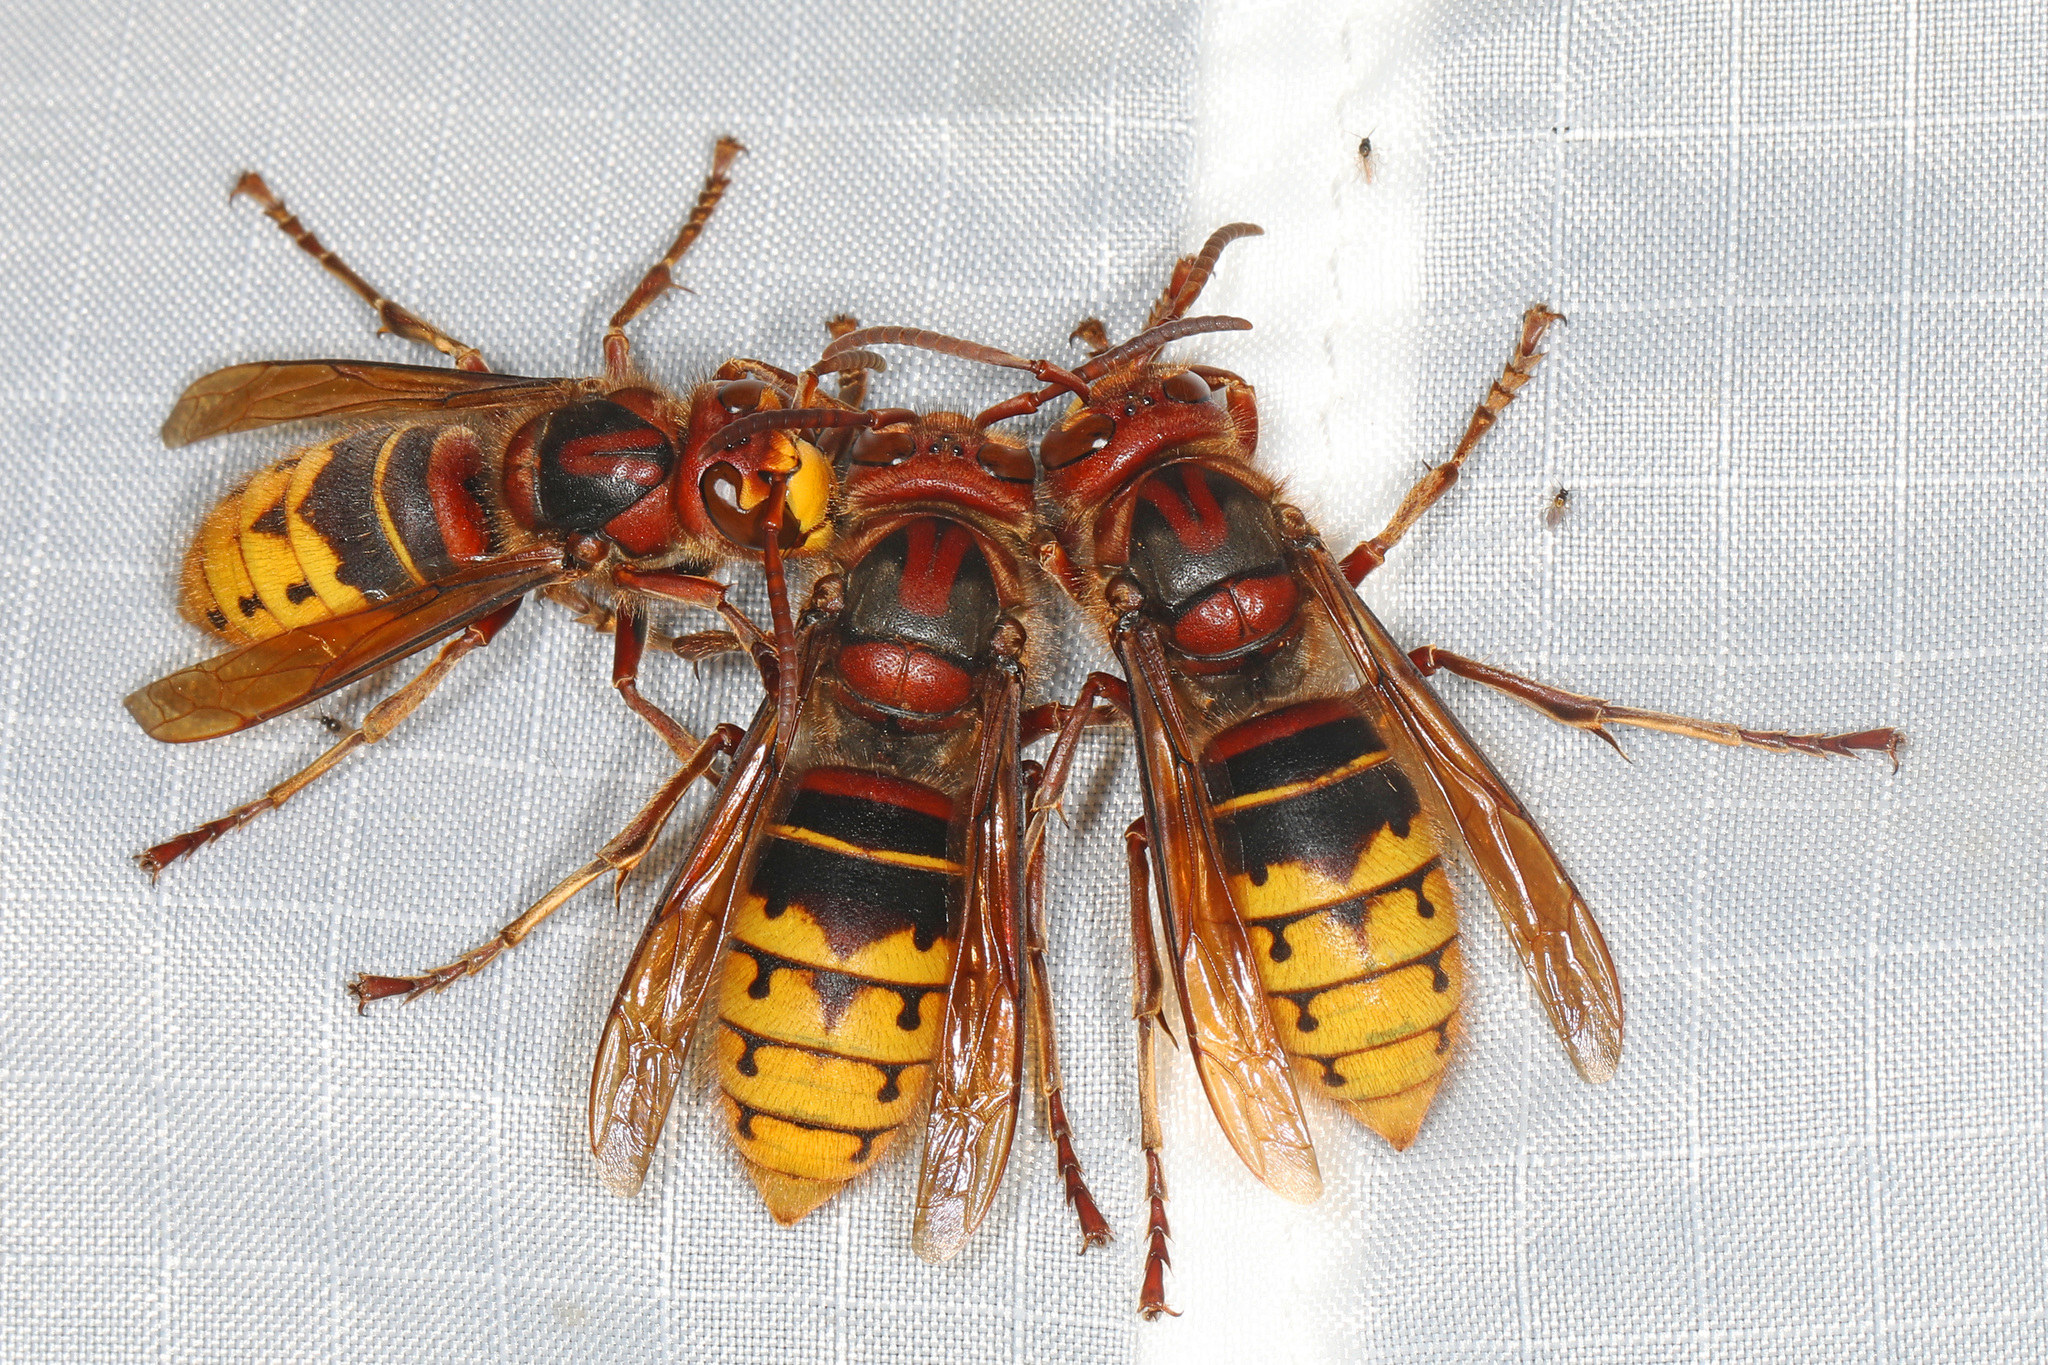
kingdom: Animalia
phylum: Arthropoda
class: Insecta
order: Hymenoptera
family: Vespidae
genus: Vespa
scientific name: Vespa crabro
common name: Hornet
